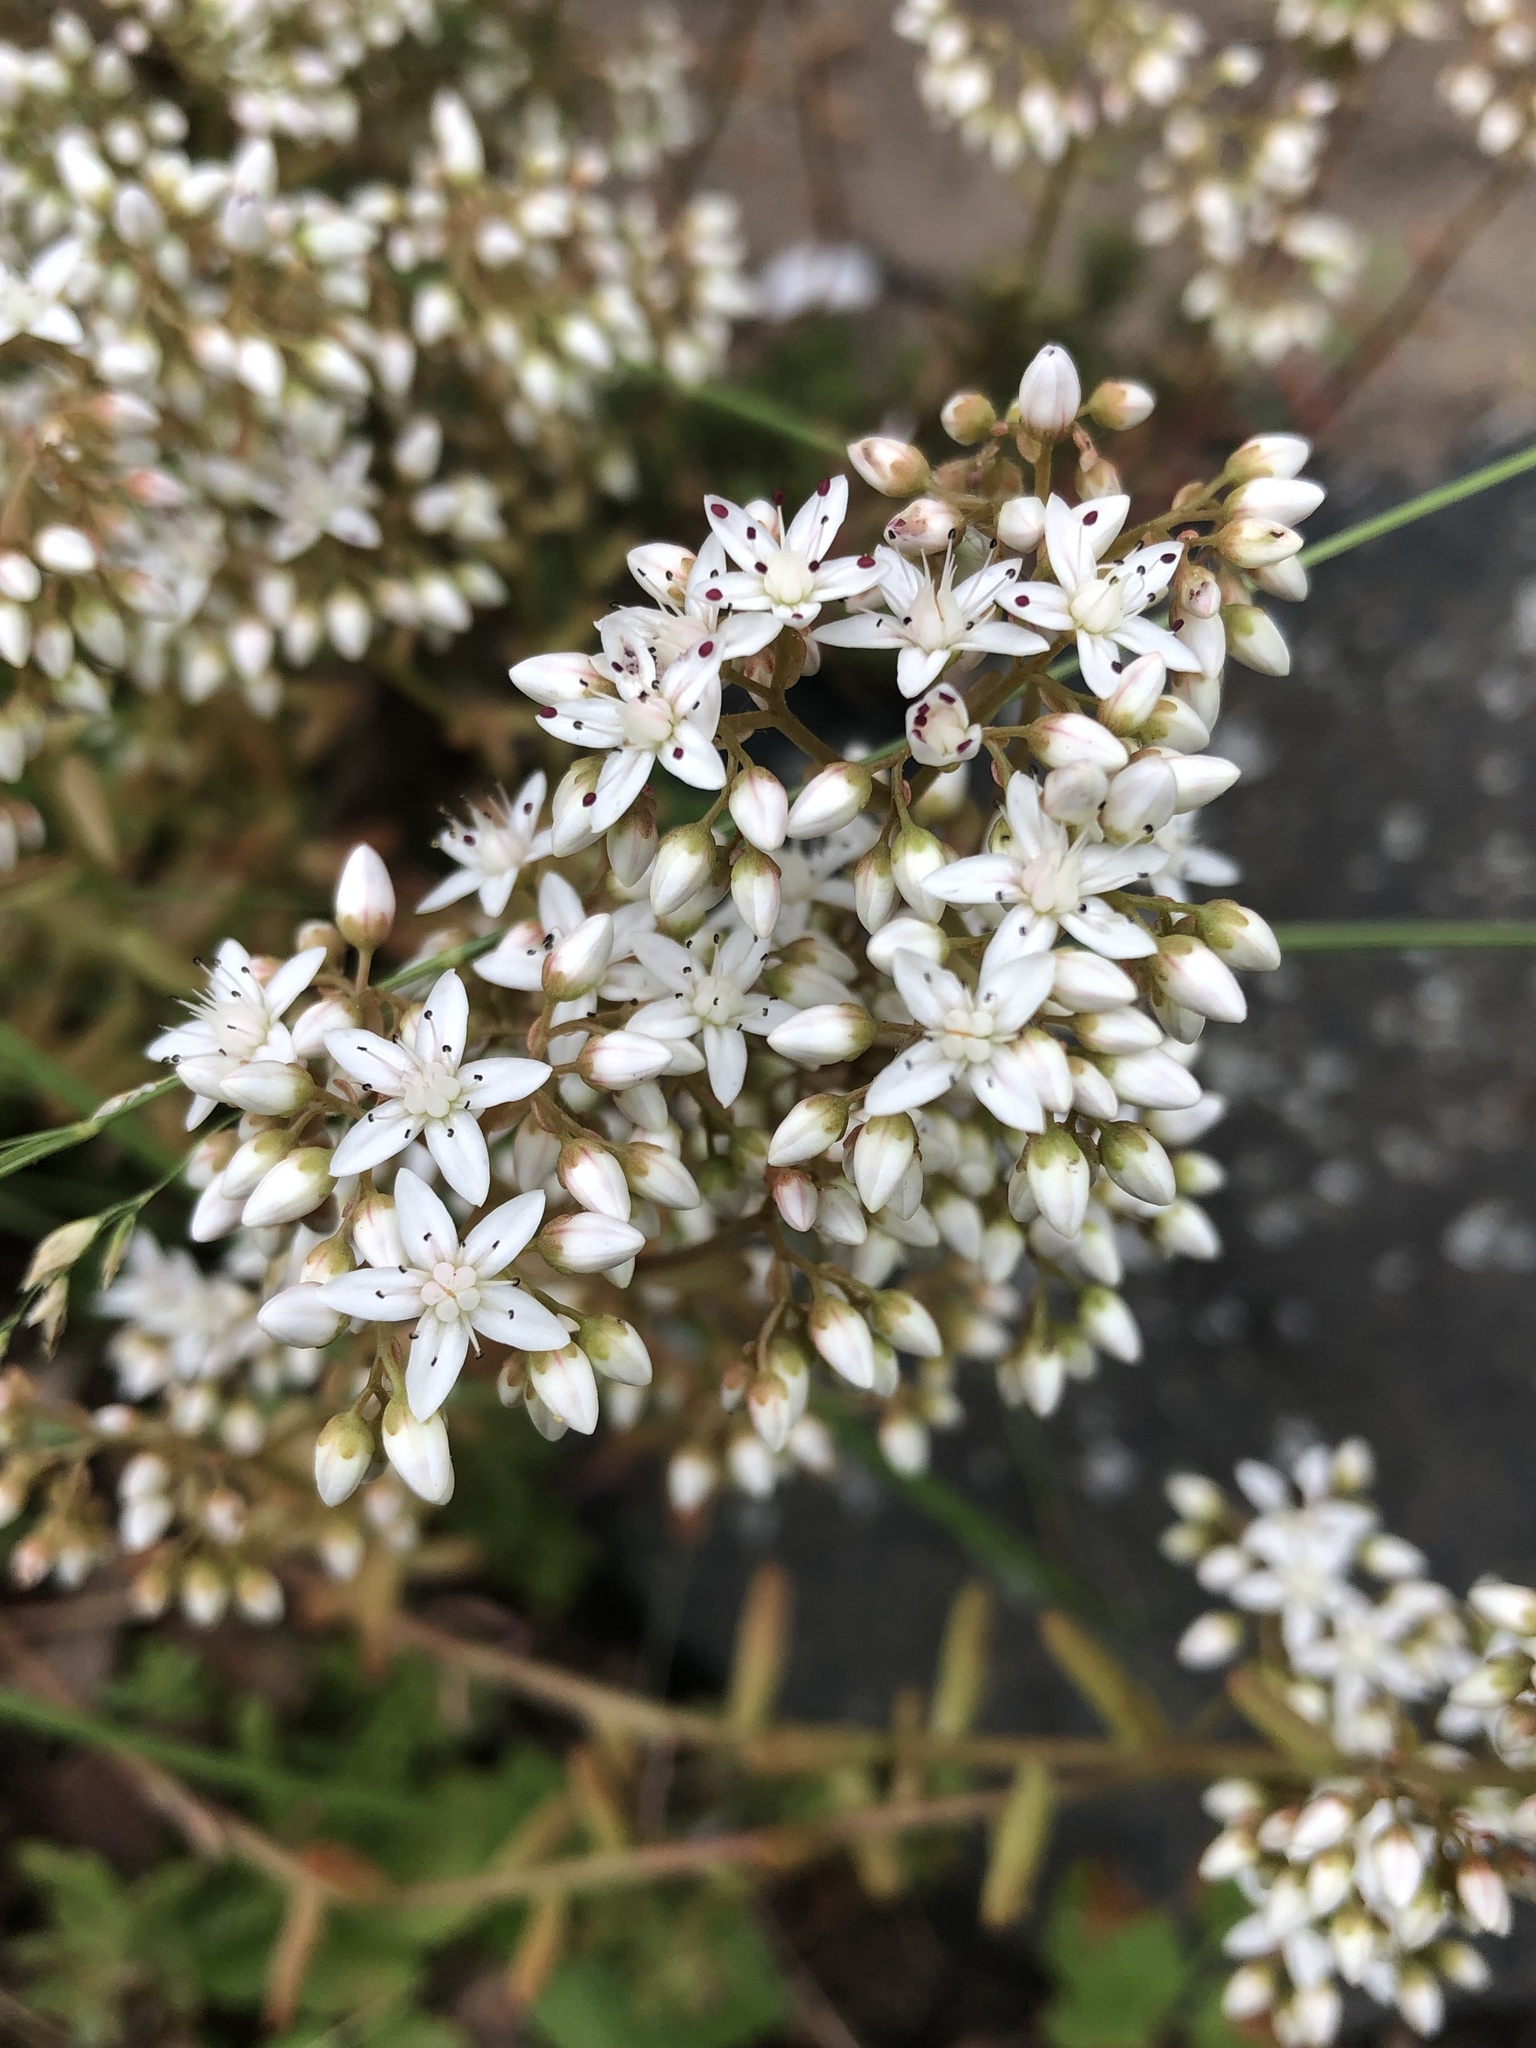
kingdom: Plantae
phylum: Tracheophyta
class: Magnoliopsida
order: Saxifragales
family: Crassulaceae
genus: Sedum
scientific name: Sedum album
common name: White stonecrop
